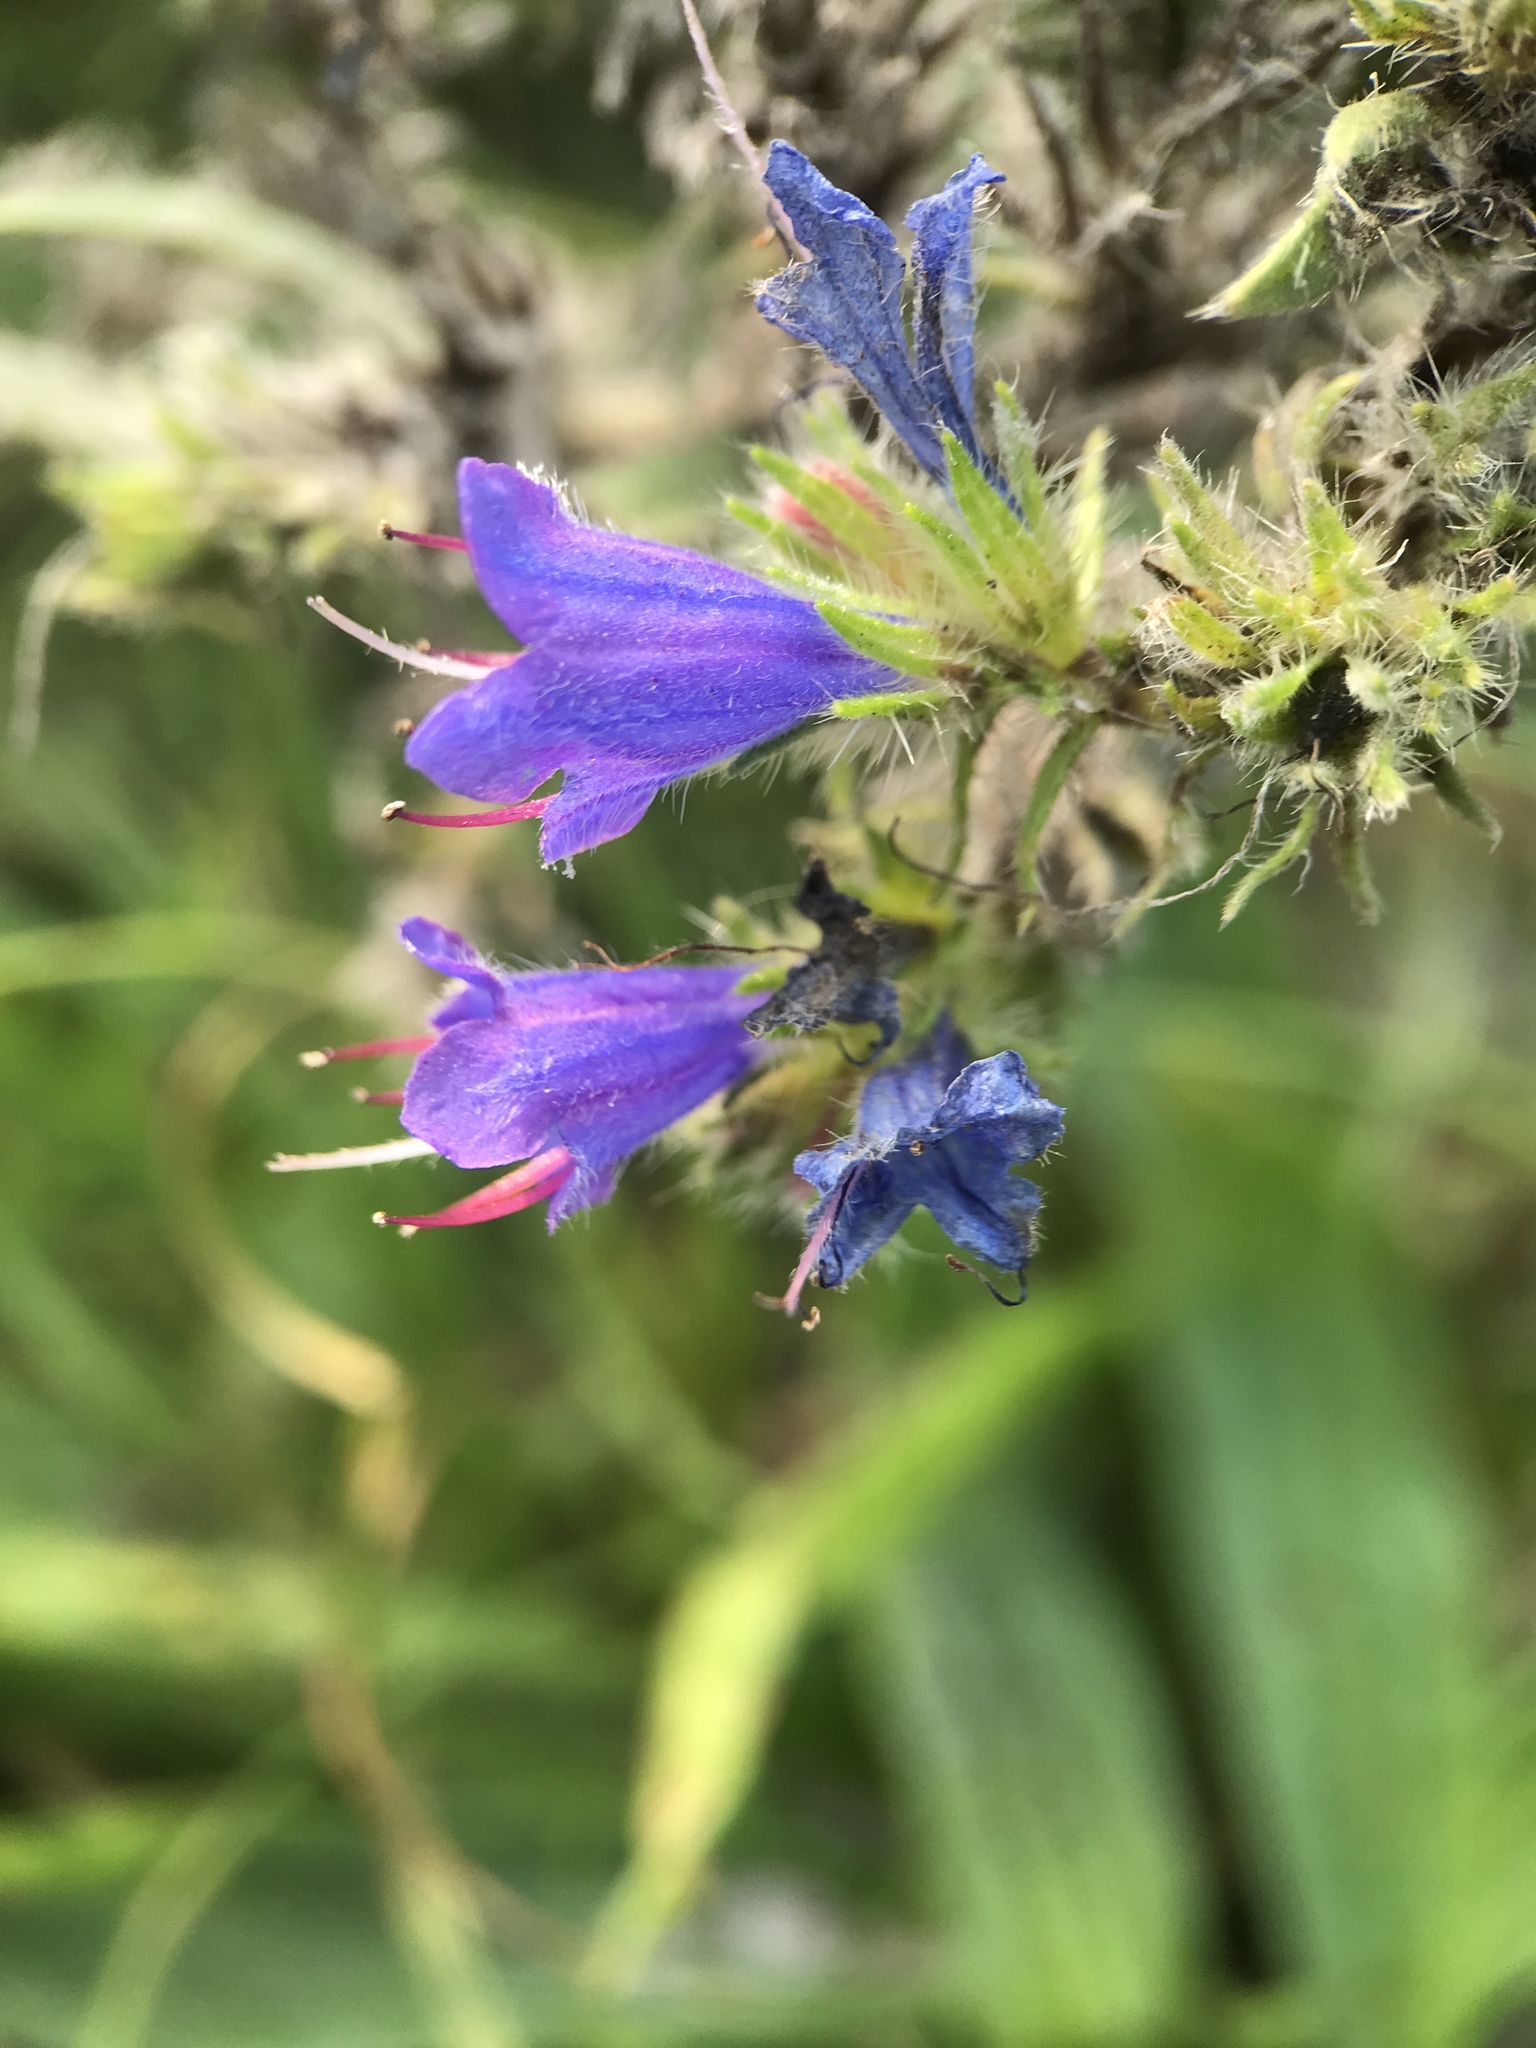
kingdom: Plantae
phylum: Tracheophyta
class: Magnoliopsida
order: Boraginales
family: Boraginaceae
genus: Echium
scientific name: Echium vulgare
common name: Common viper's bugloss
